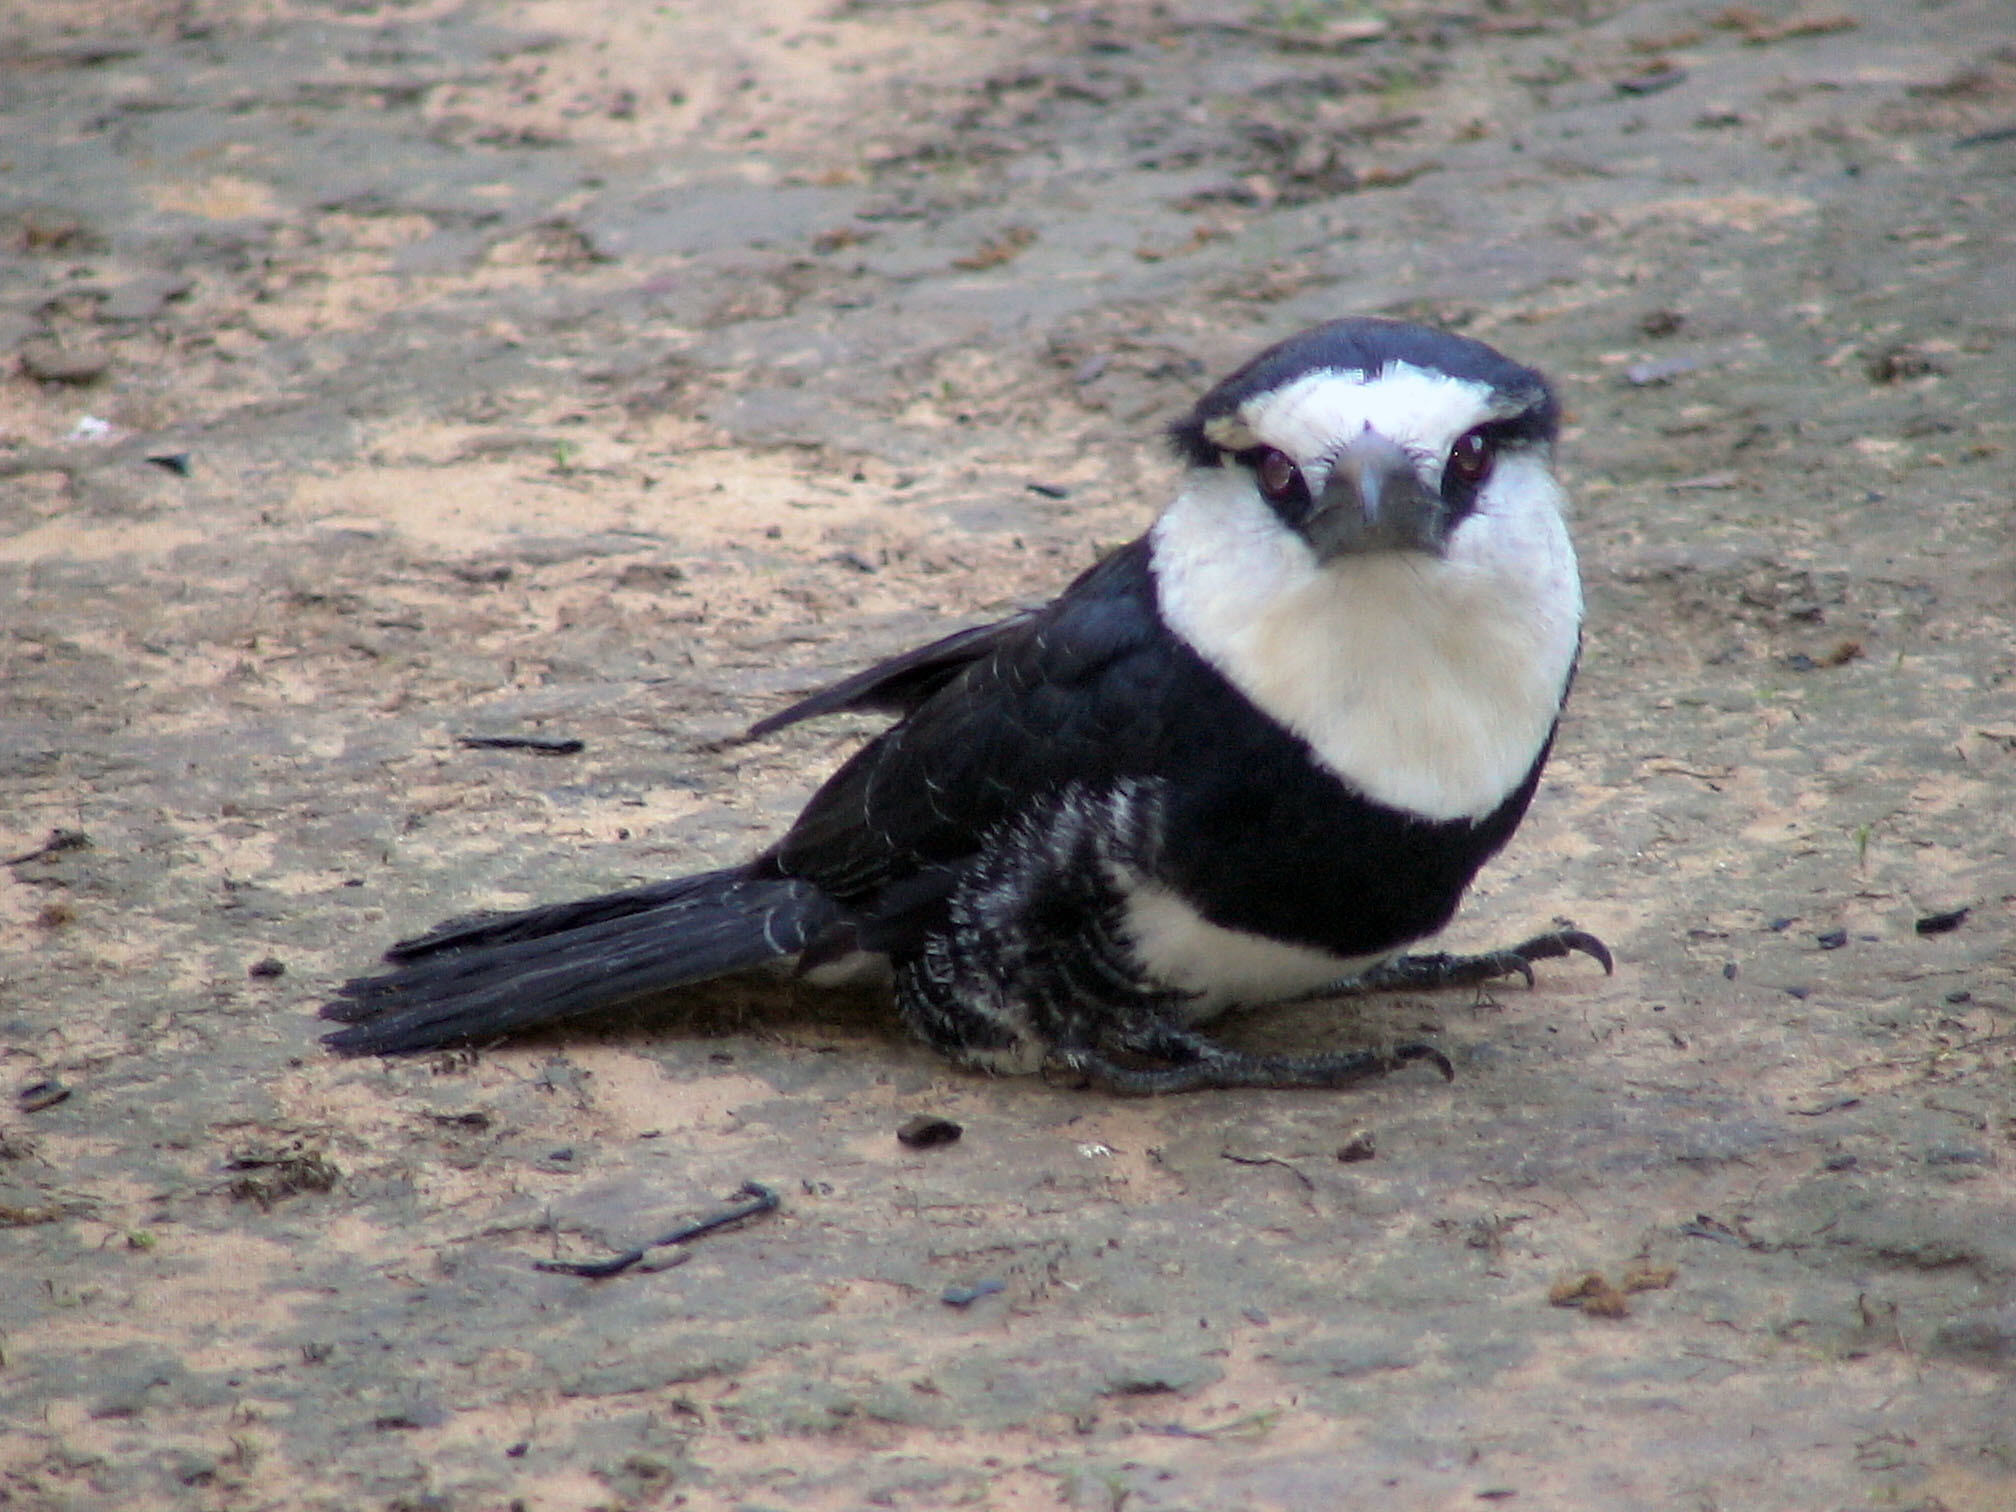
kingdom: Animalia
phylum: Chordata
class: Aves
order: Piciformes
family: Bucconidae
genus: Notharchus
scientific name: Notharchus hyperrhynchus
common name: White-necked puffbird
